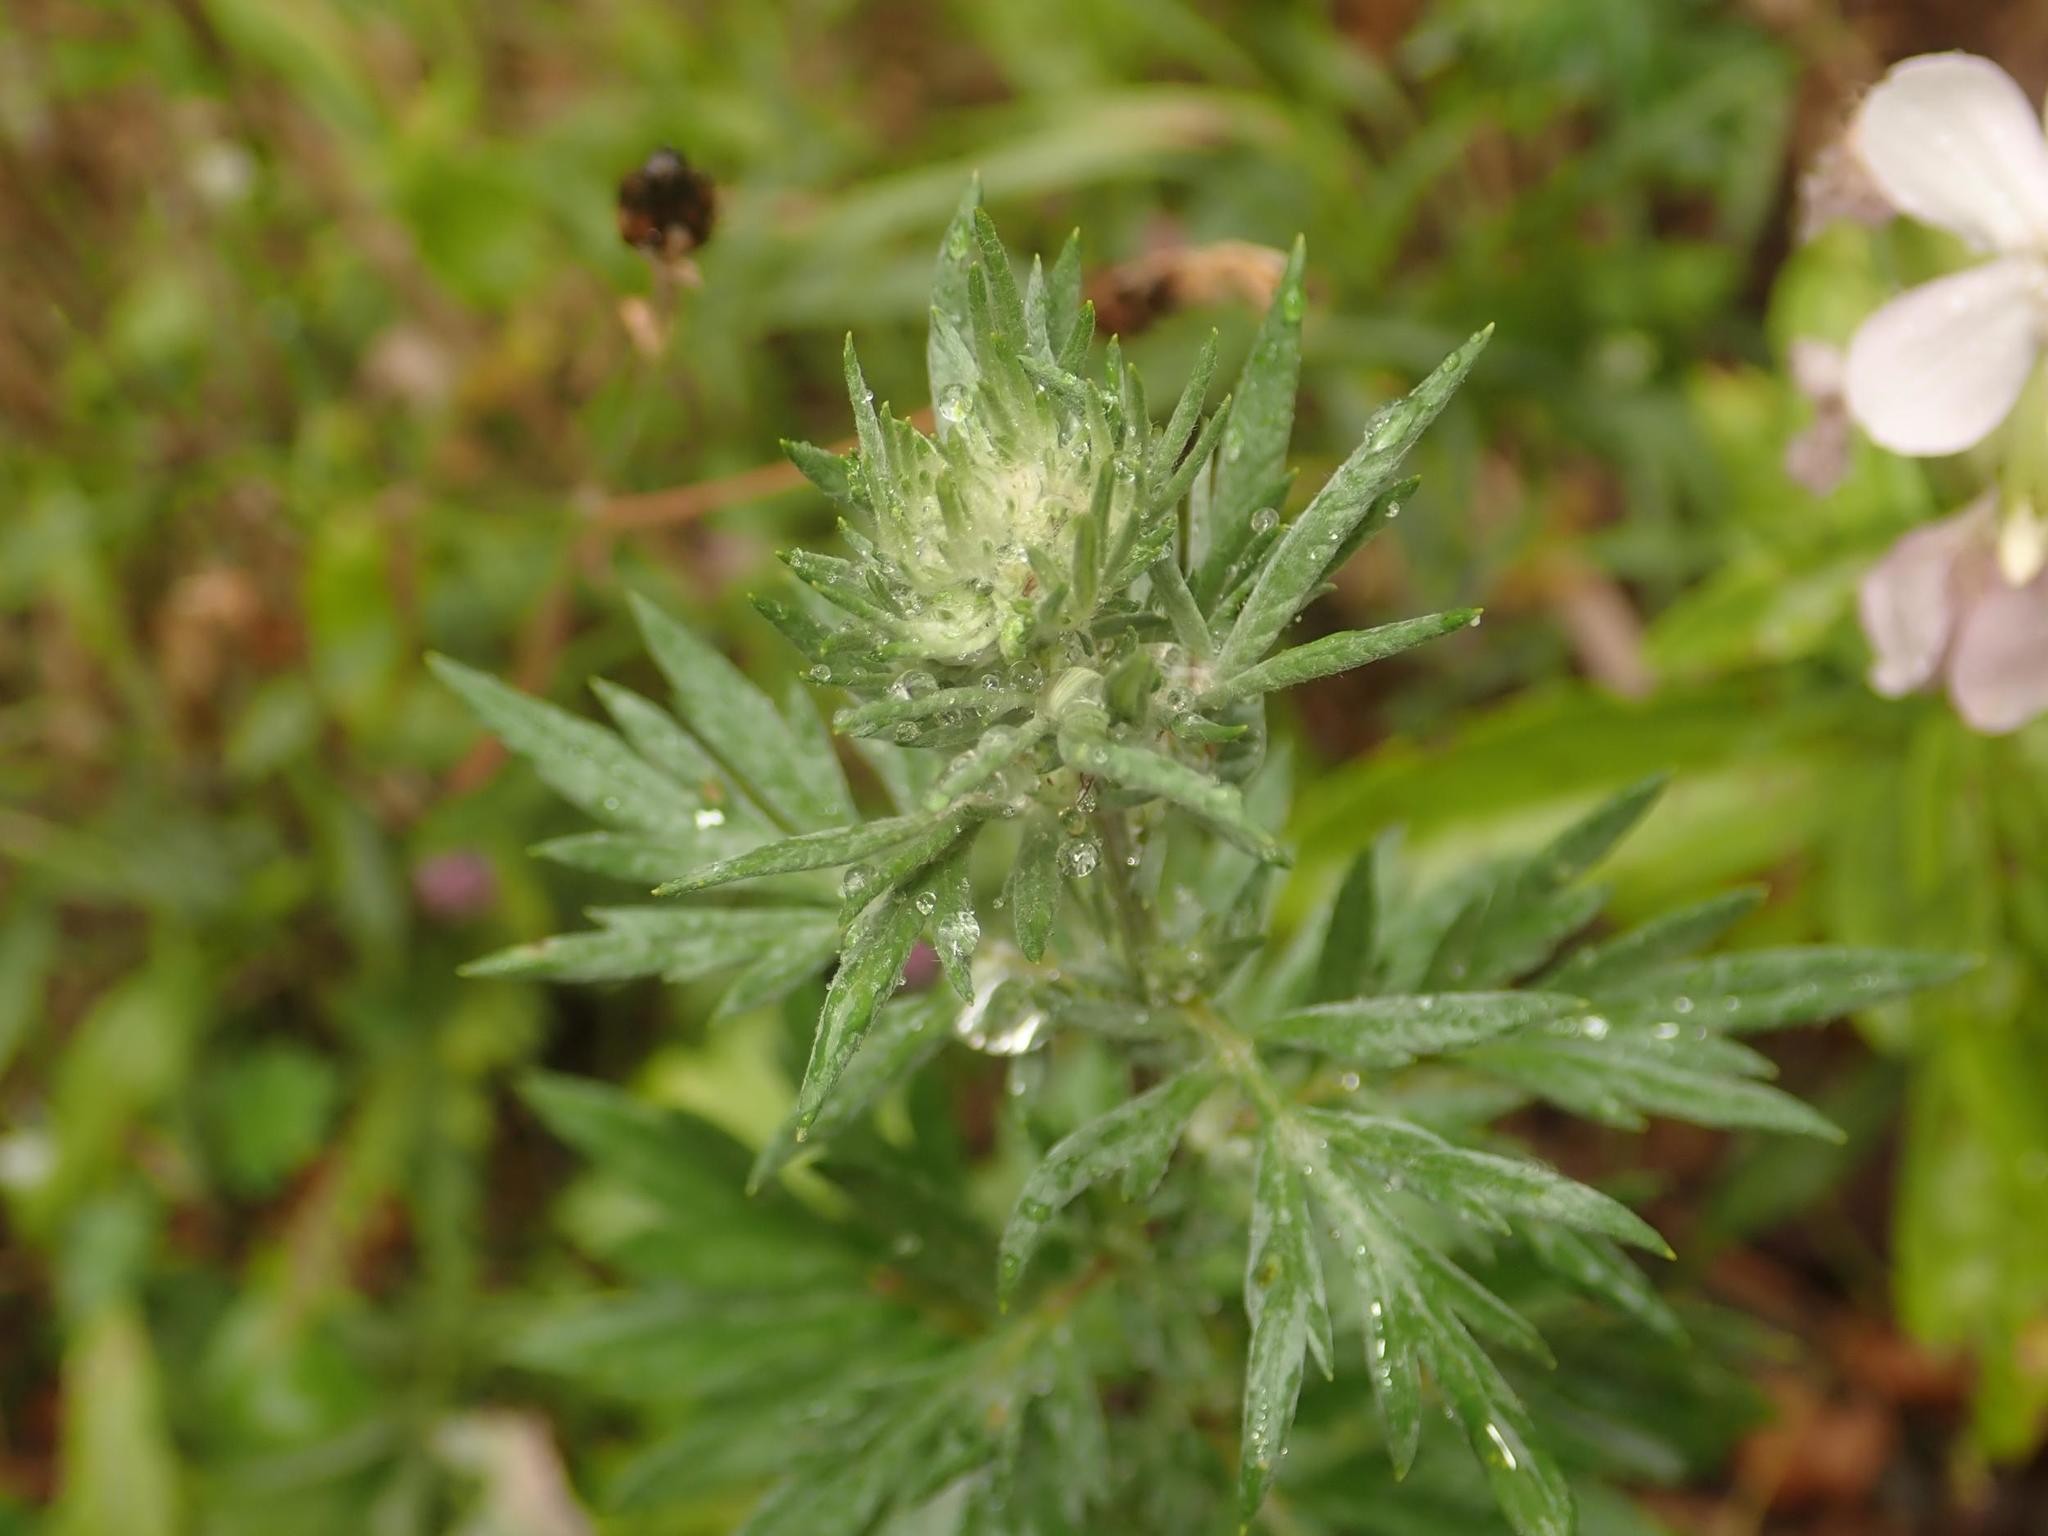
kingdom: Plantae
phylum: Tracheophyta
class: Magnoliopsida
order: Asterales
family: Asteraceae
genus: Artemisia
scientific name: Artemisia vulgaris
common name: Mugwort
